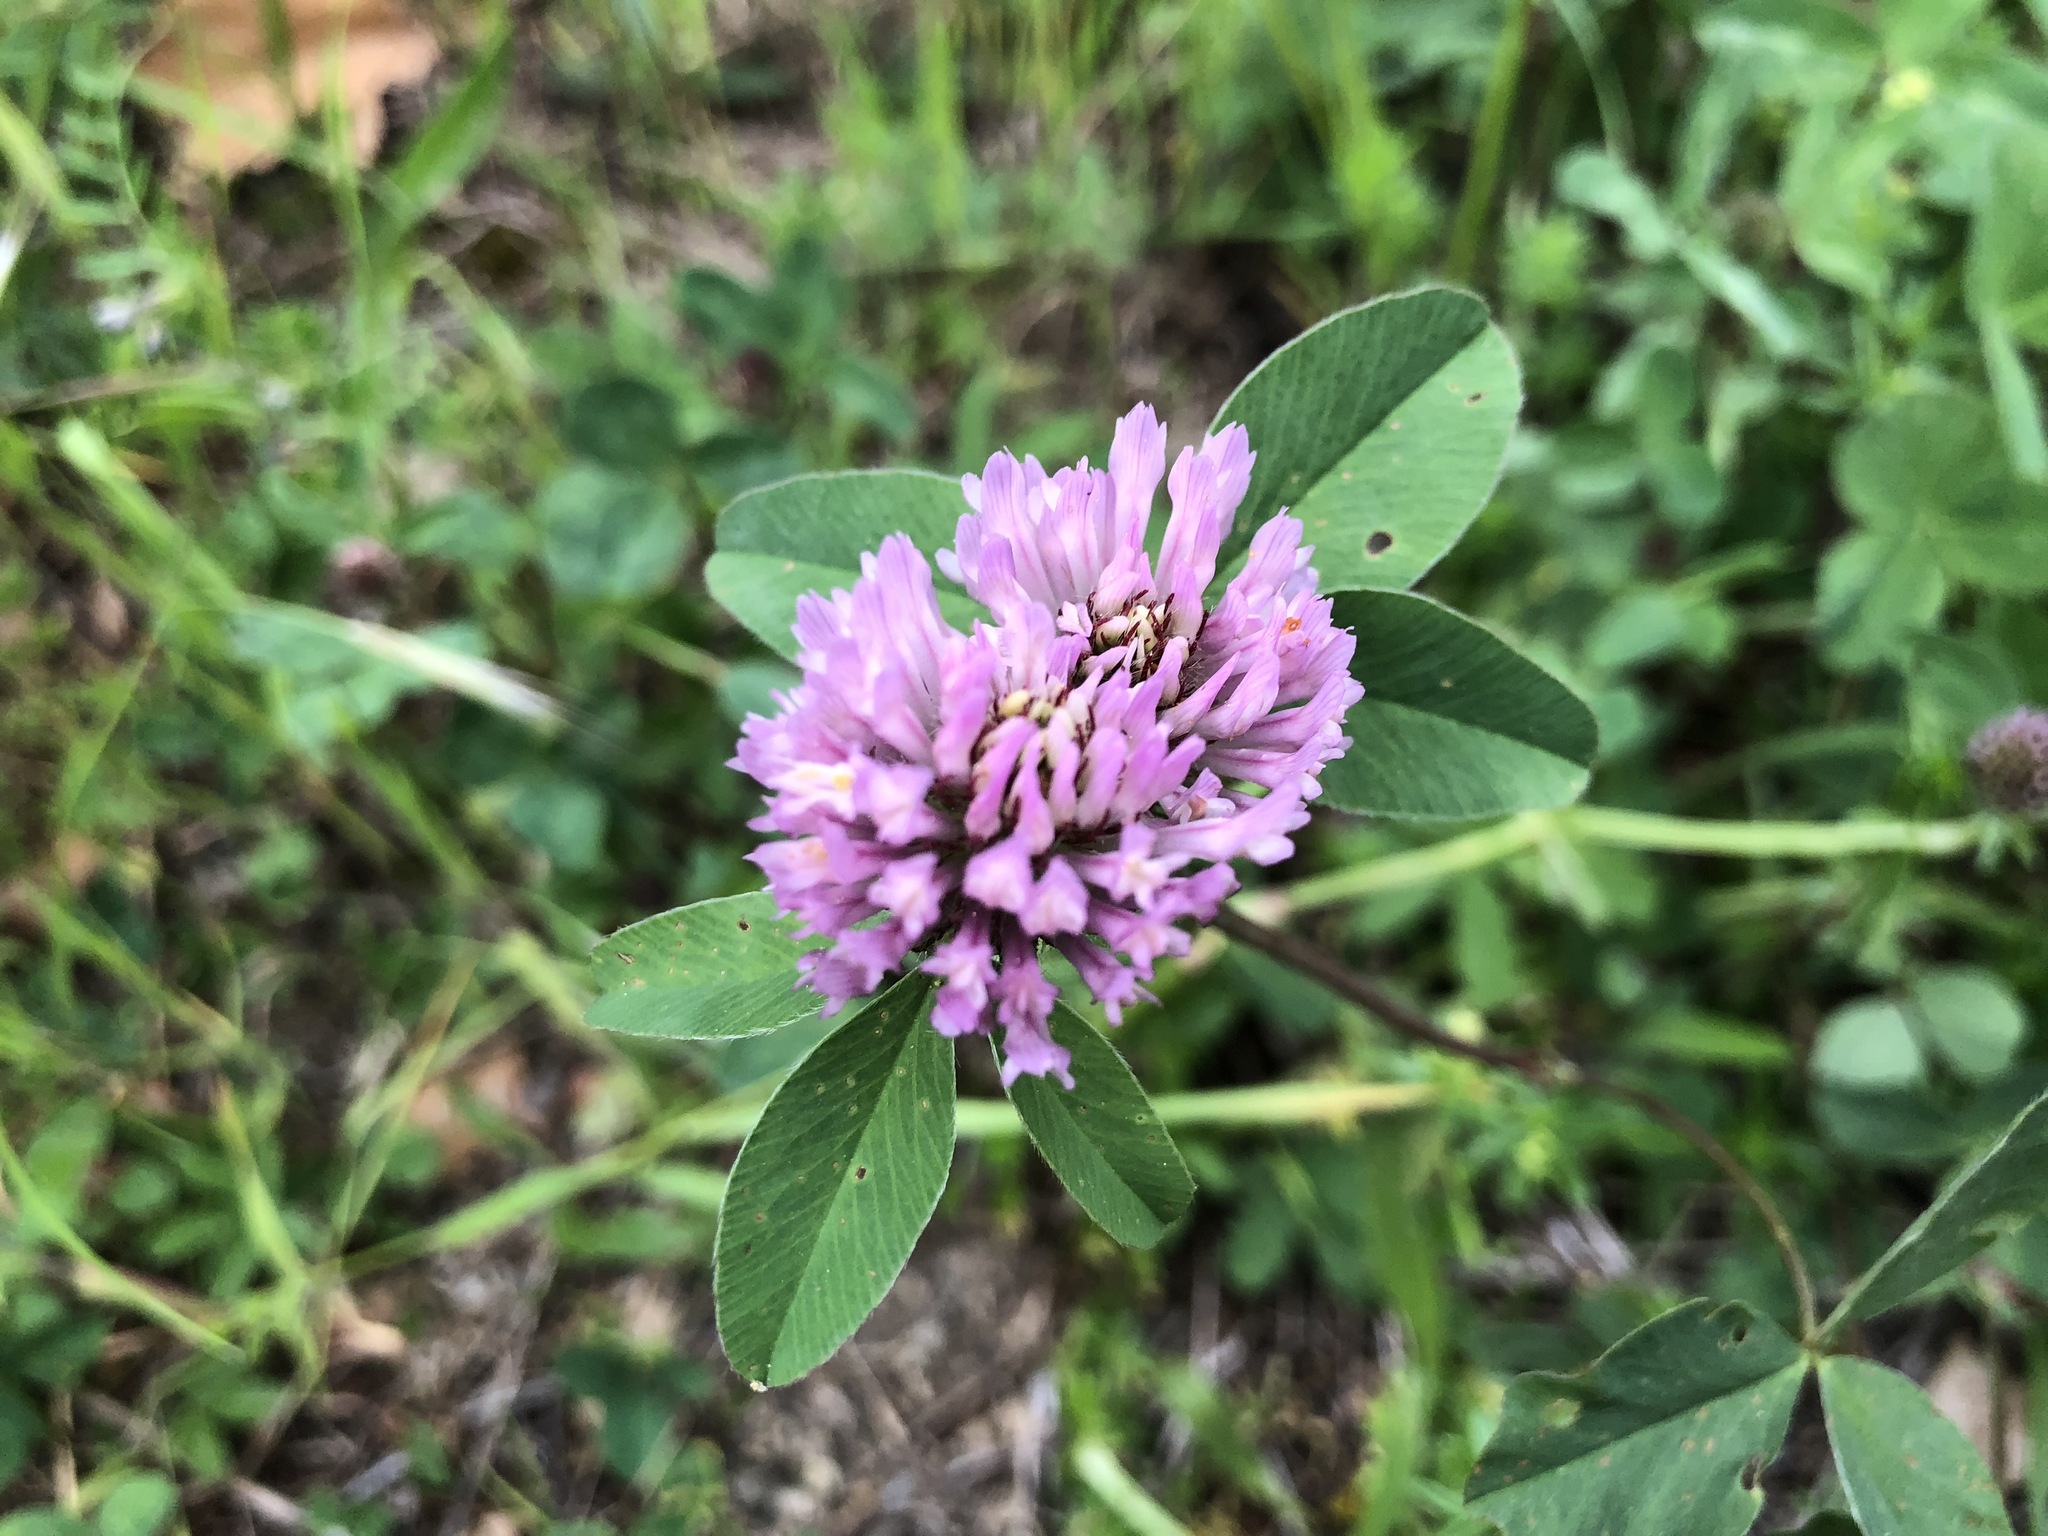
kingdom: Plantae
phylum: Tracheophyta
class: Magnoliopsida
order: Fabales
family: Fabaceae
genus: Trifolium
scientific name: Trifolium pratense
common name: Red clover
